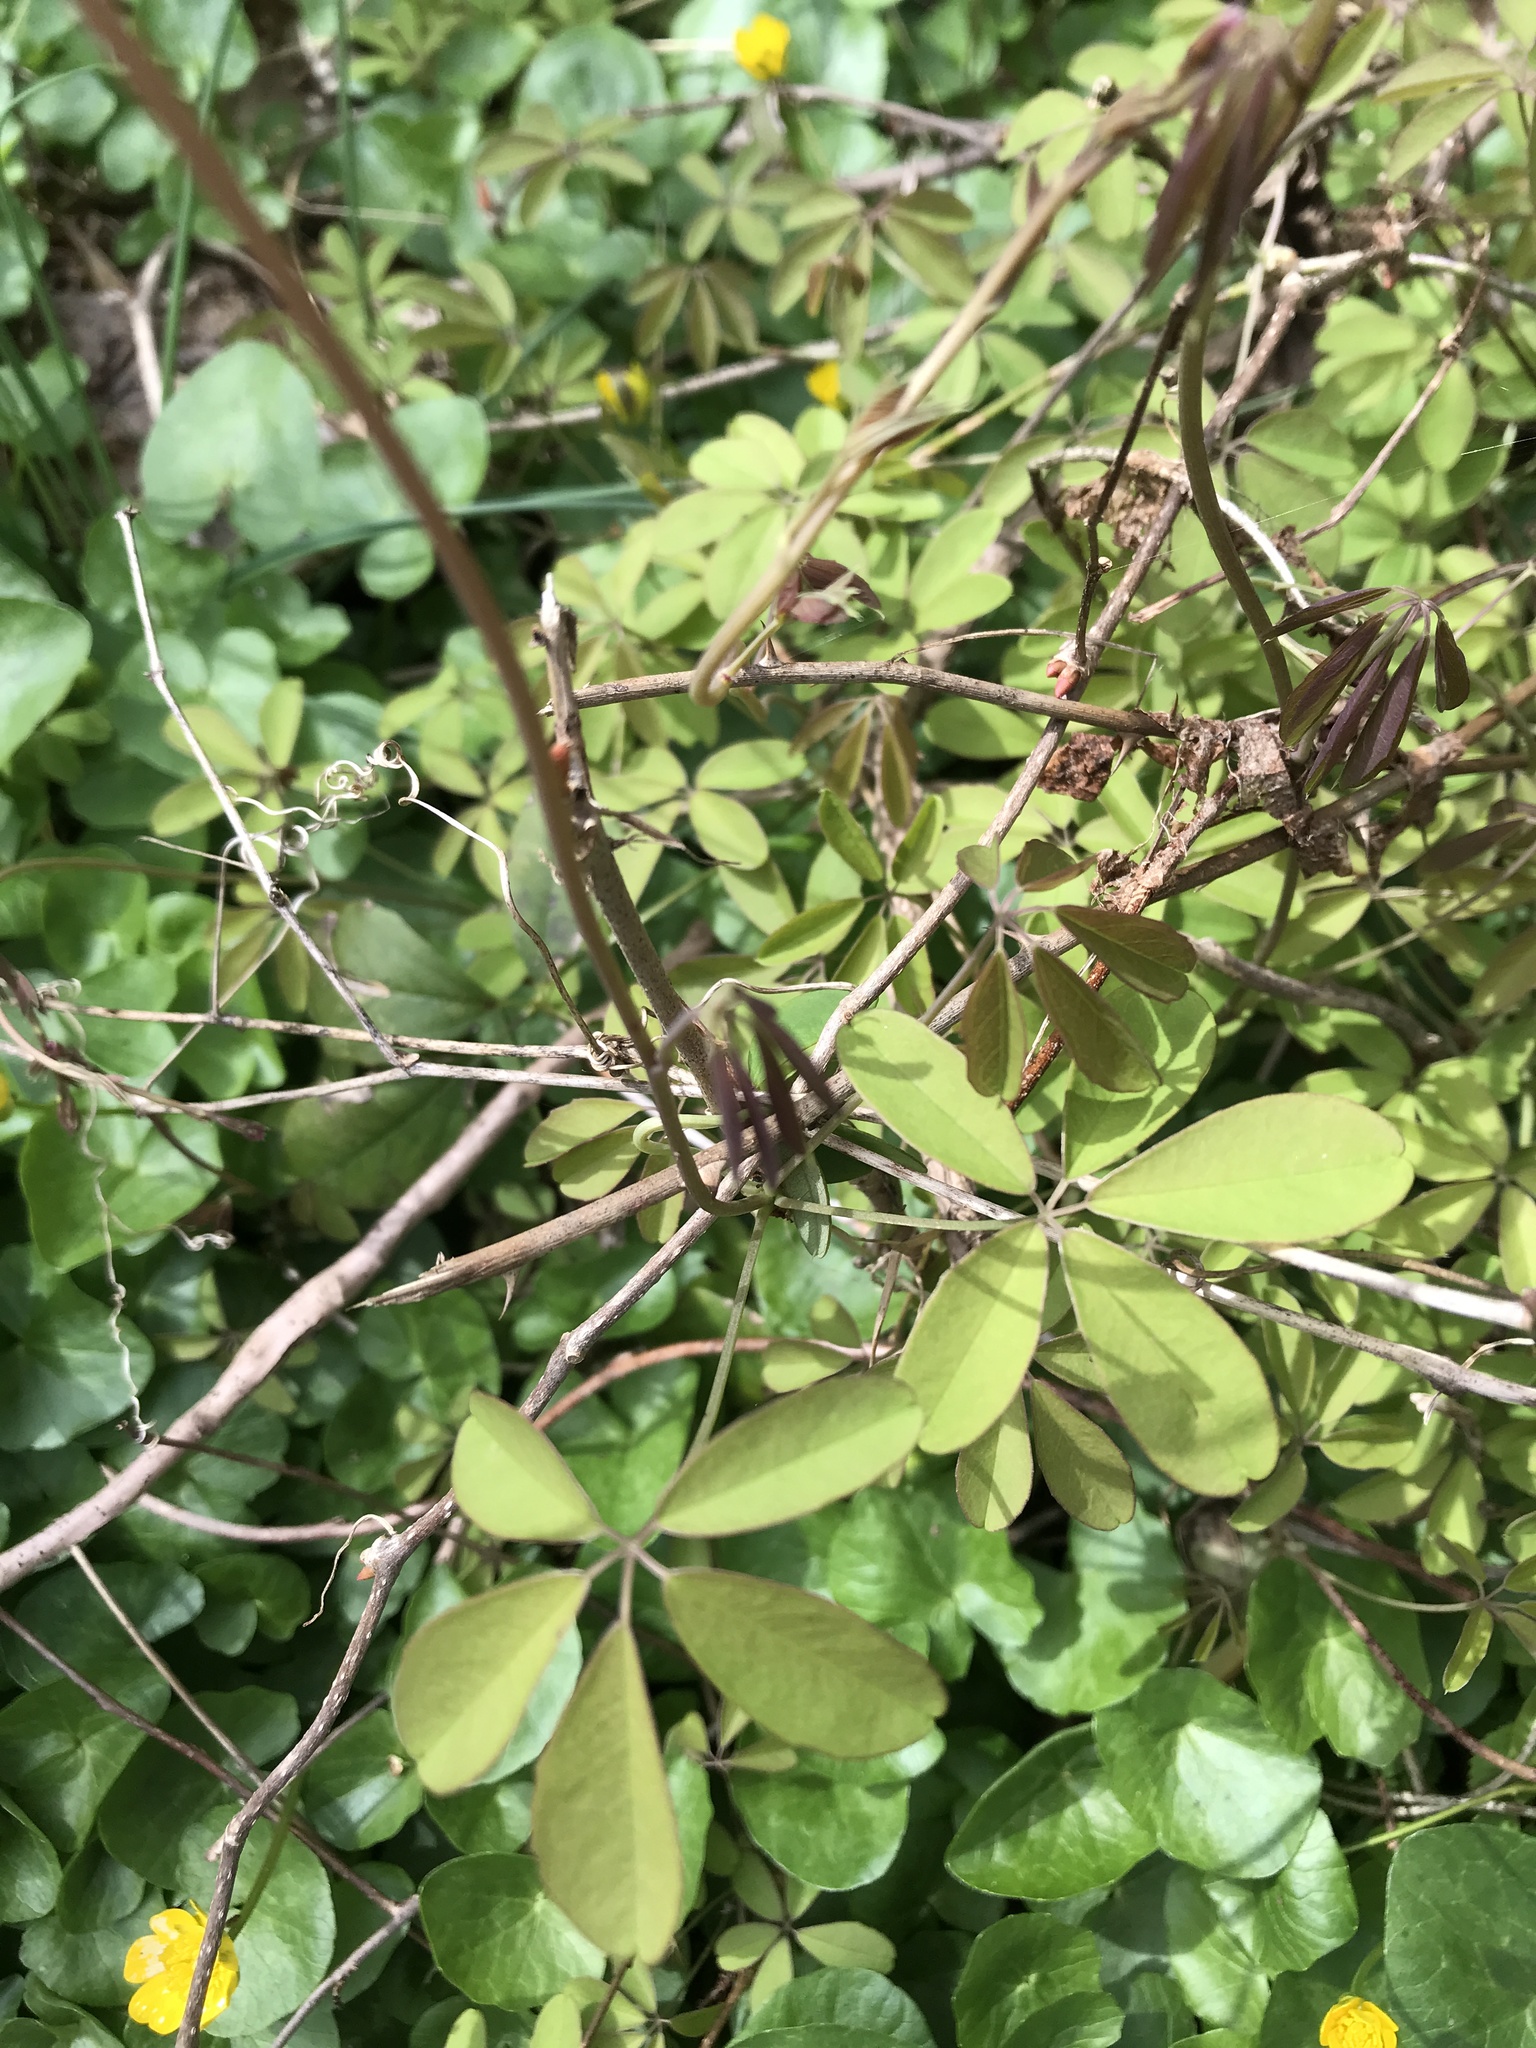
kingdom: Plantae
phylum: Tracheophyta
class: Magnoliopsida
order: Ranunculales
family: Lardizabalaceae
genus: Akebia
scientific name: Akebia quinata
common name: Five-leaf akebia
